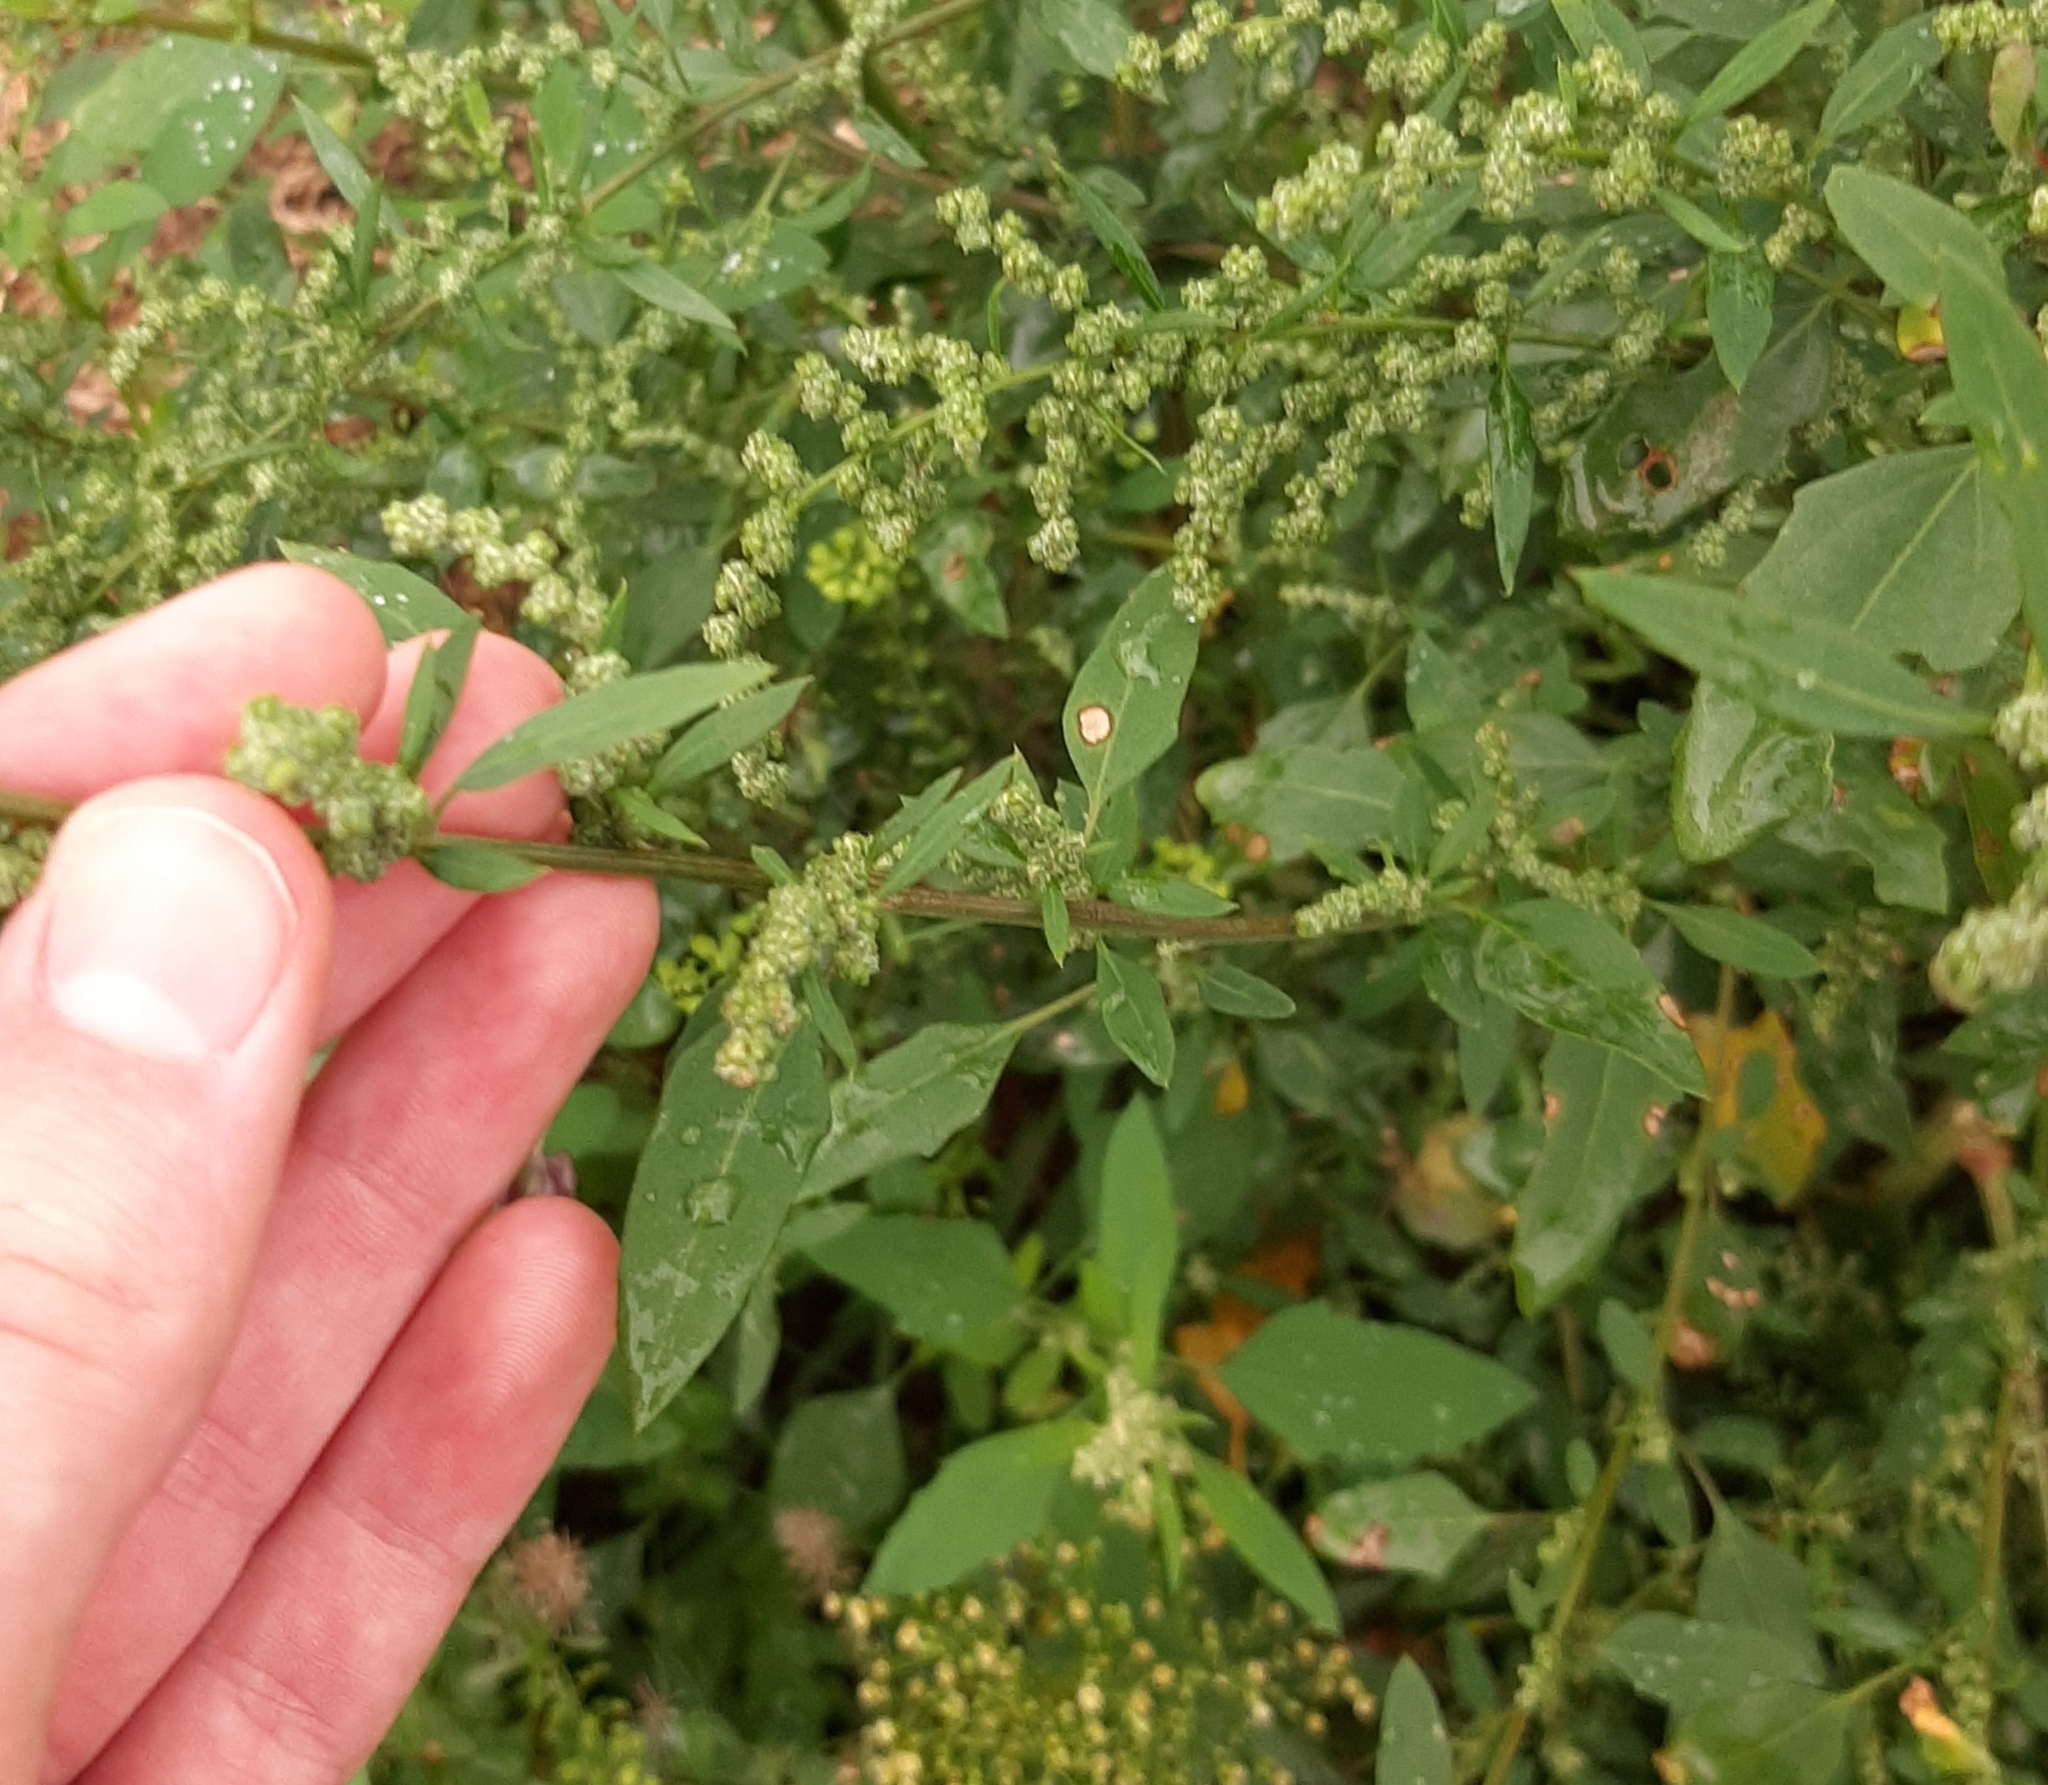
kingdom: Plantae
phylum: Tracheophyta
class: Magnoliopsida
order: Caryophyllales
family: Amaranthaceae
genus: Chenopodium
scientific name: Chenopodium album
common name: Fat-hen
